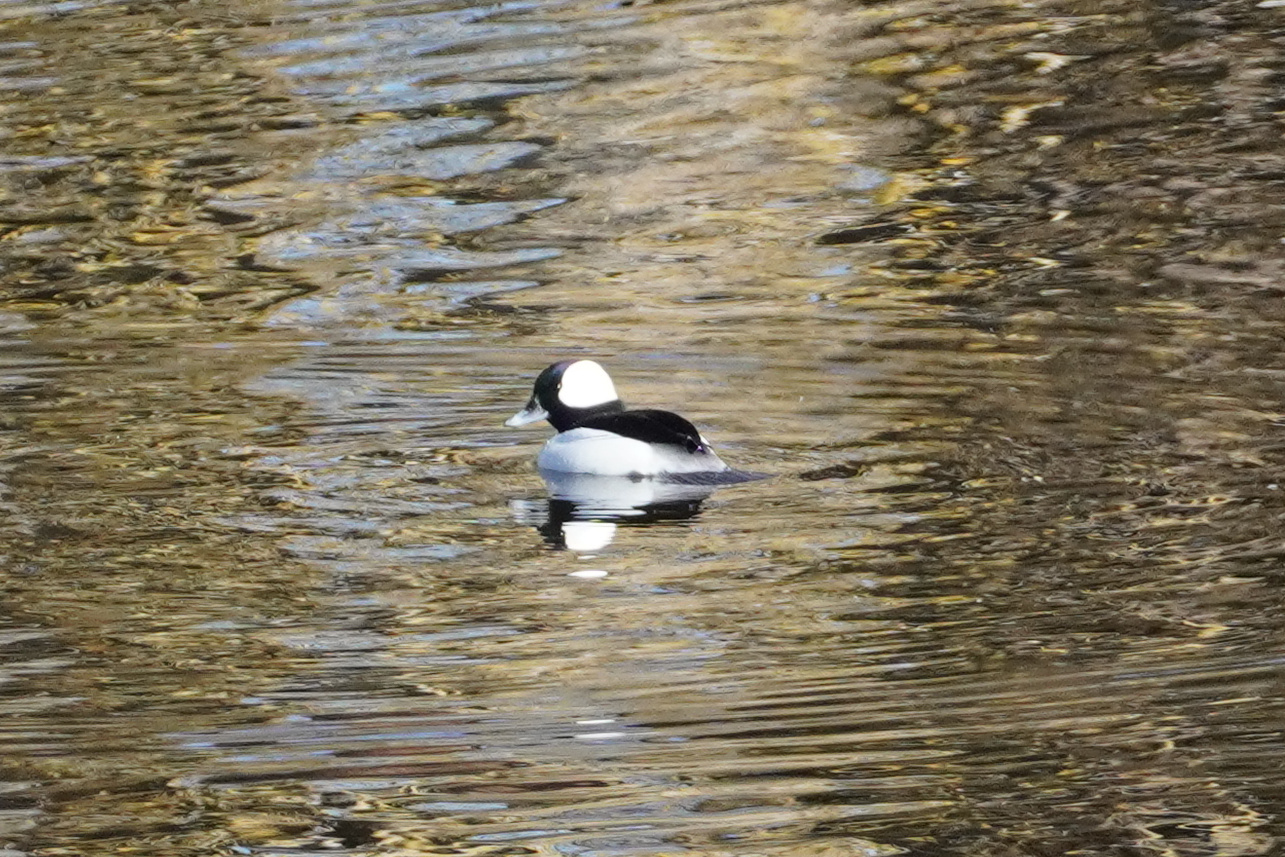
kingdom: Animalia
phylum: Chordata
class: Aves
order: Anseriformes
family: Anatidae
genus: Bucephala
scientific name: Bucephala albeola
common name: Bufflehead
